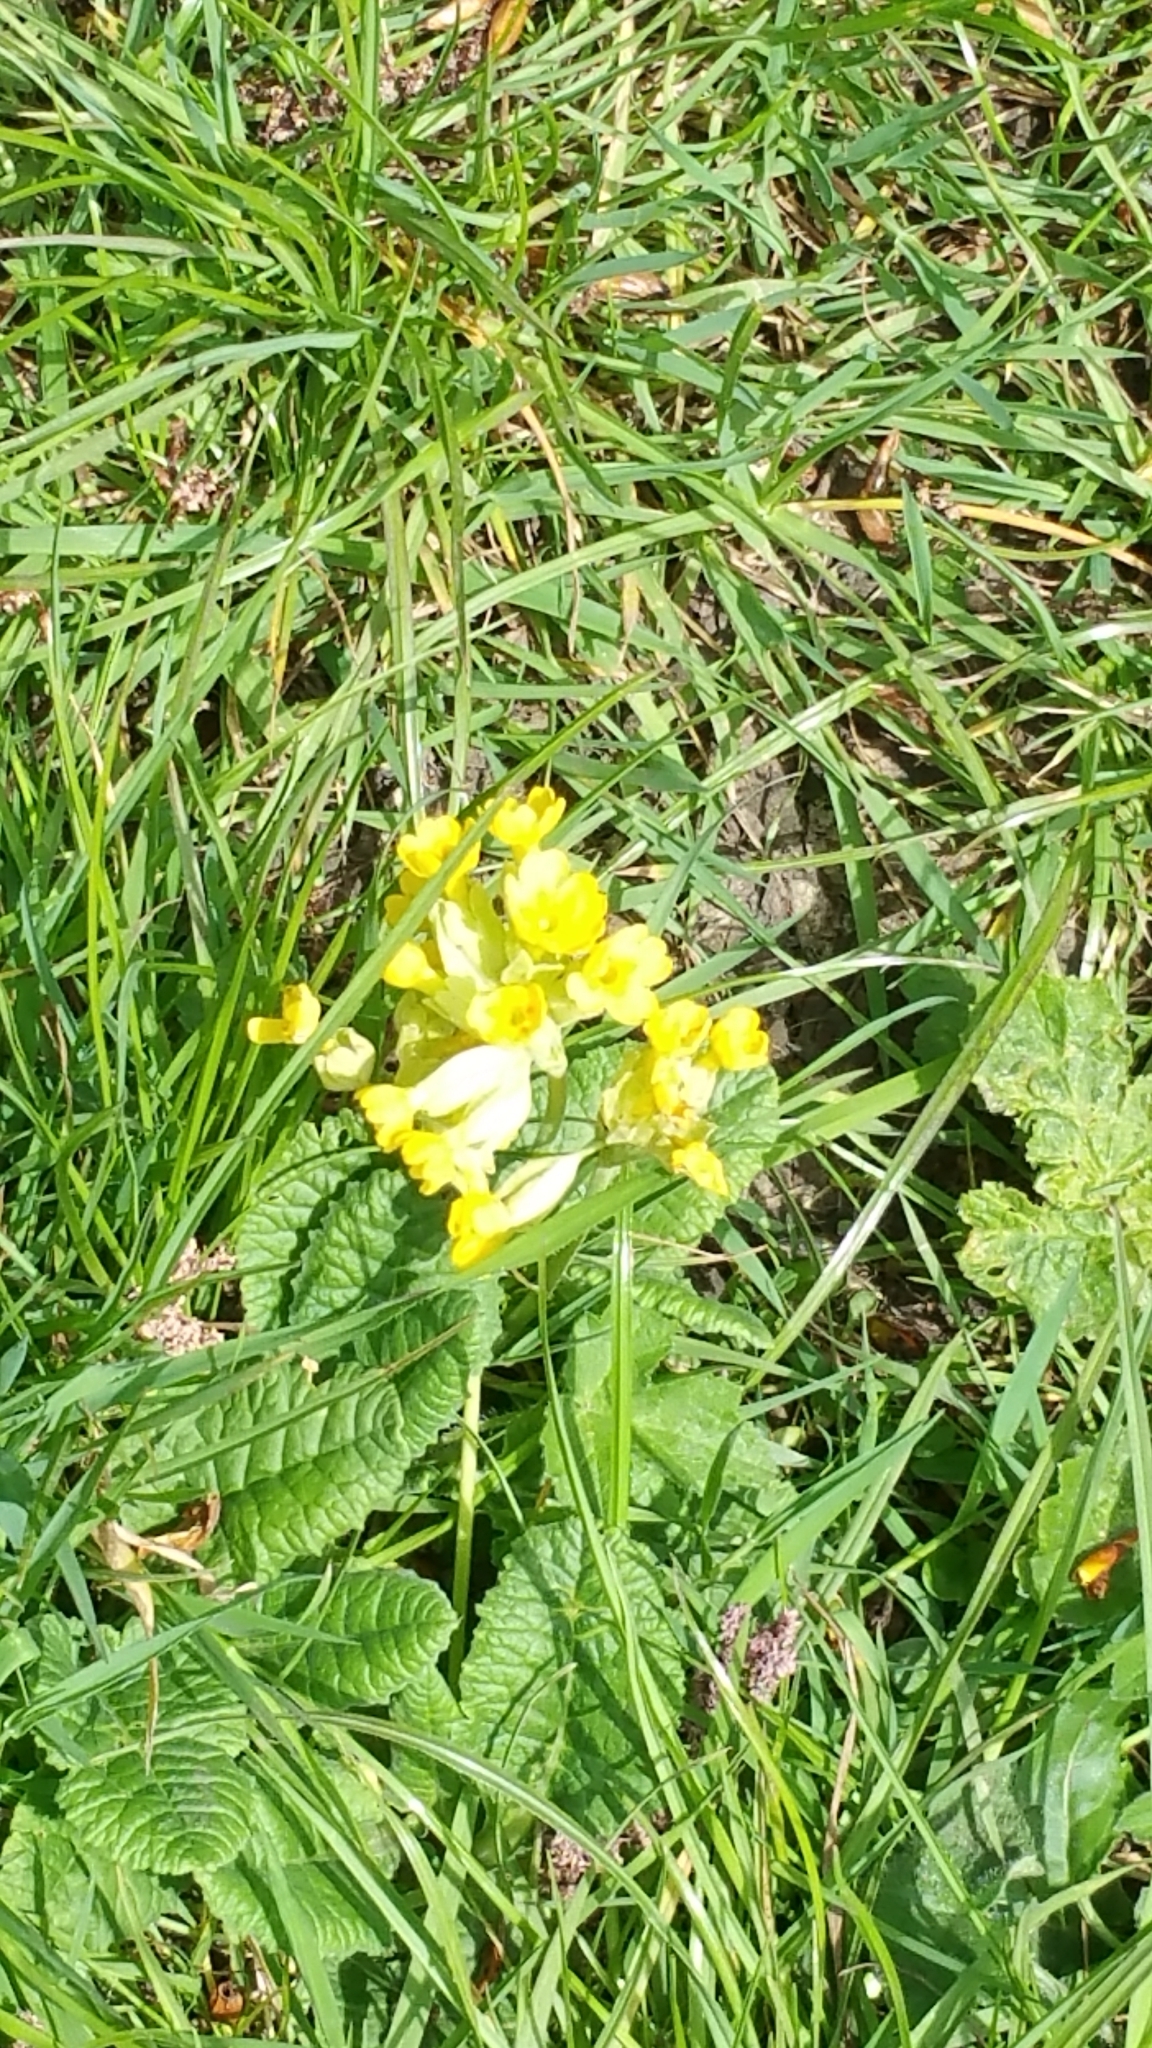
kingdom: Plantae
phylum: Tracheophyta
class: Magnoliopsida
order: Ericales
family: Primulaceae
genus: Primula
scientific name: Primula veris
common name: Cowslip
